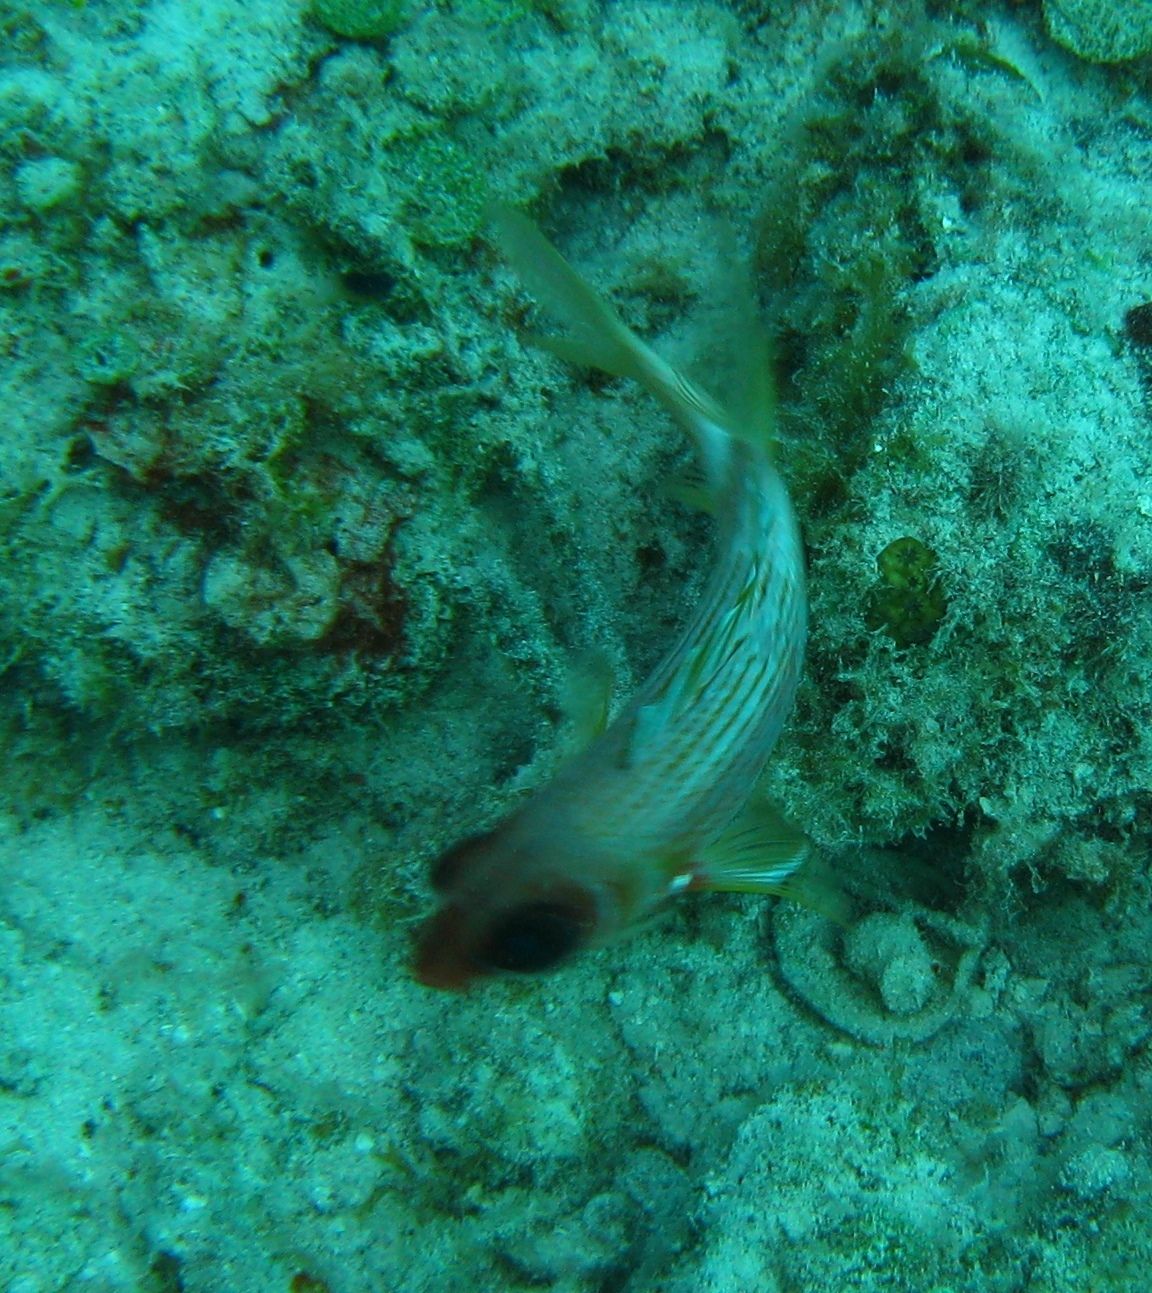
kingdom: Animalia
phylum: Chordata
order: Beryciformes
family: Holocentridae
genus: Holocentrus
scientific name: Holocentrus rufus
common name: Longspine squirrelfish
